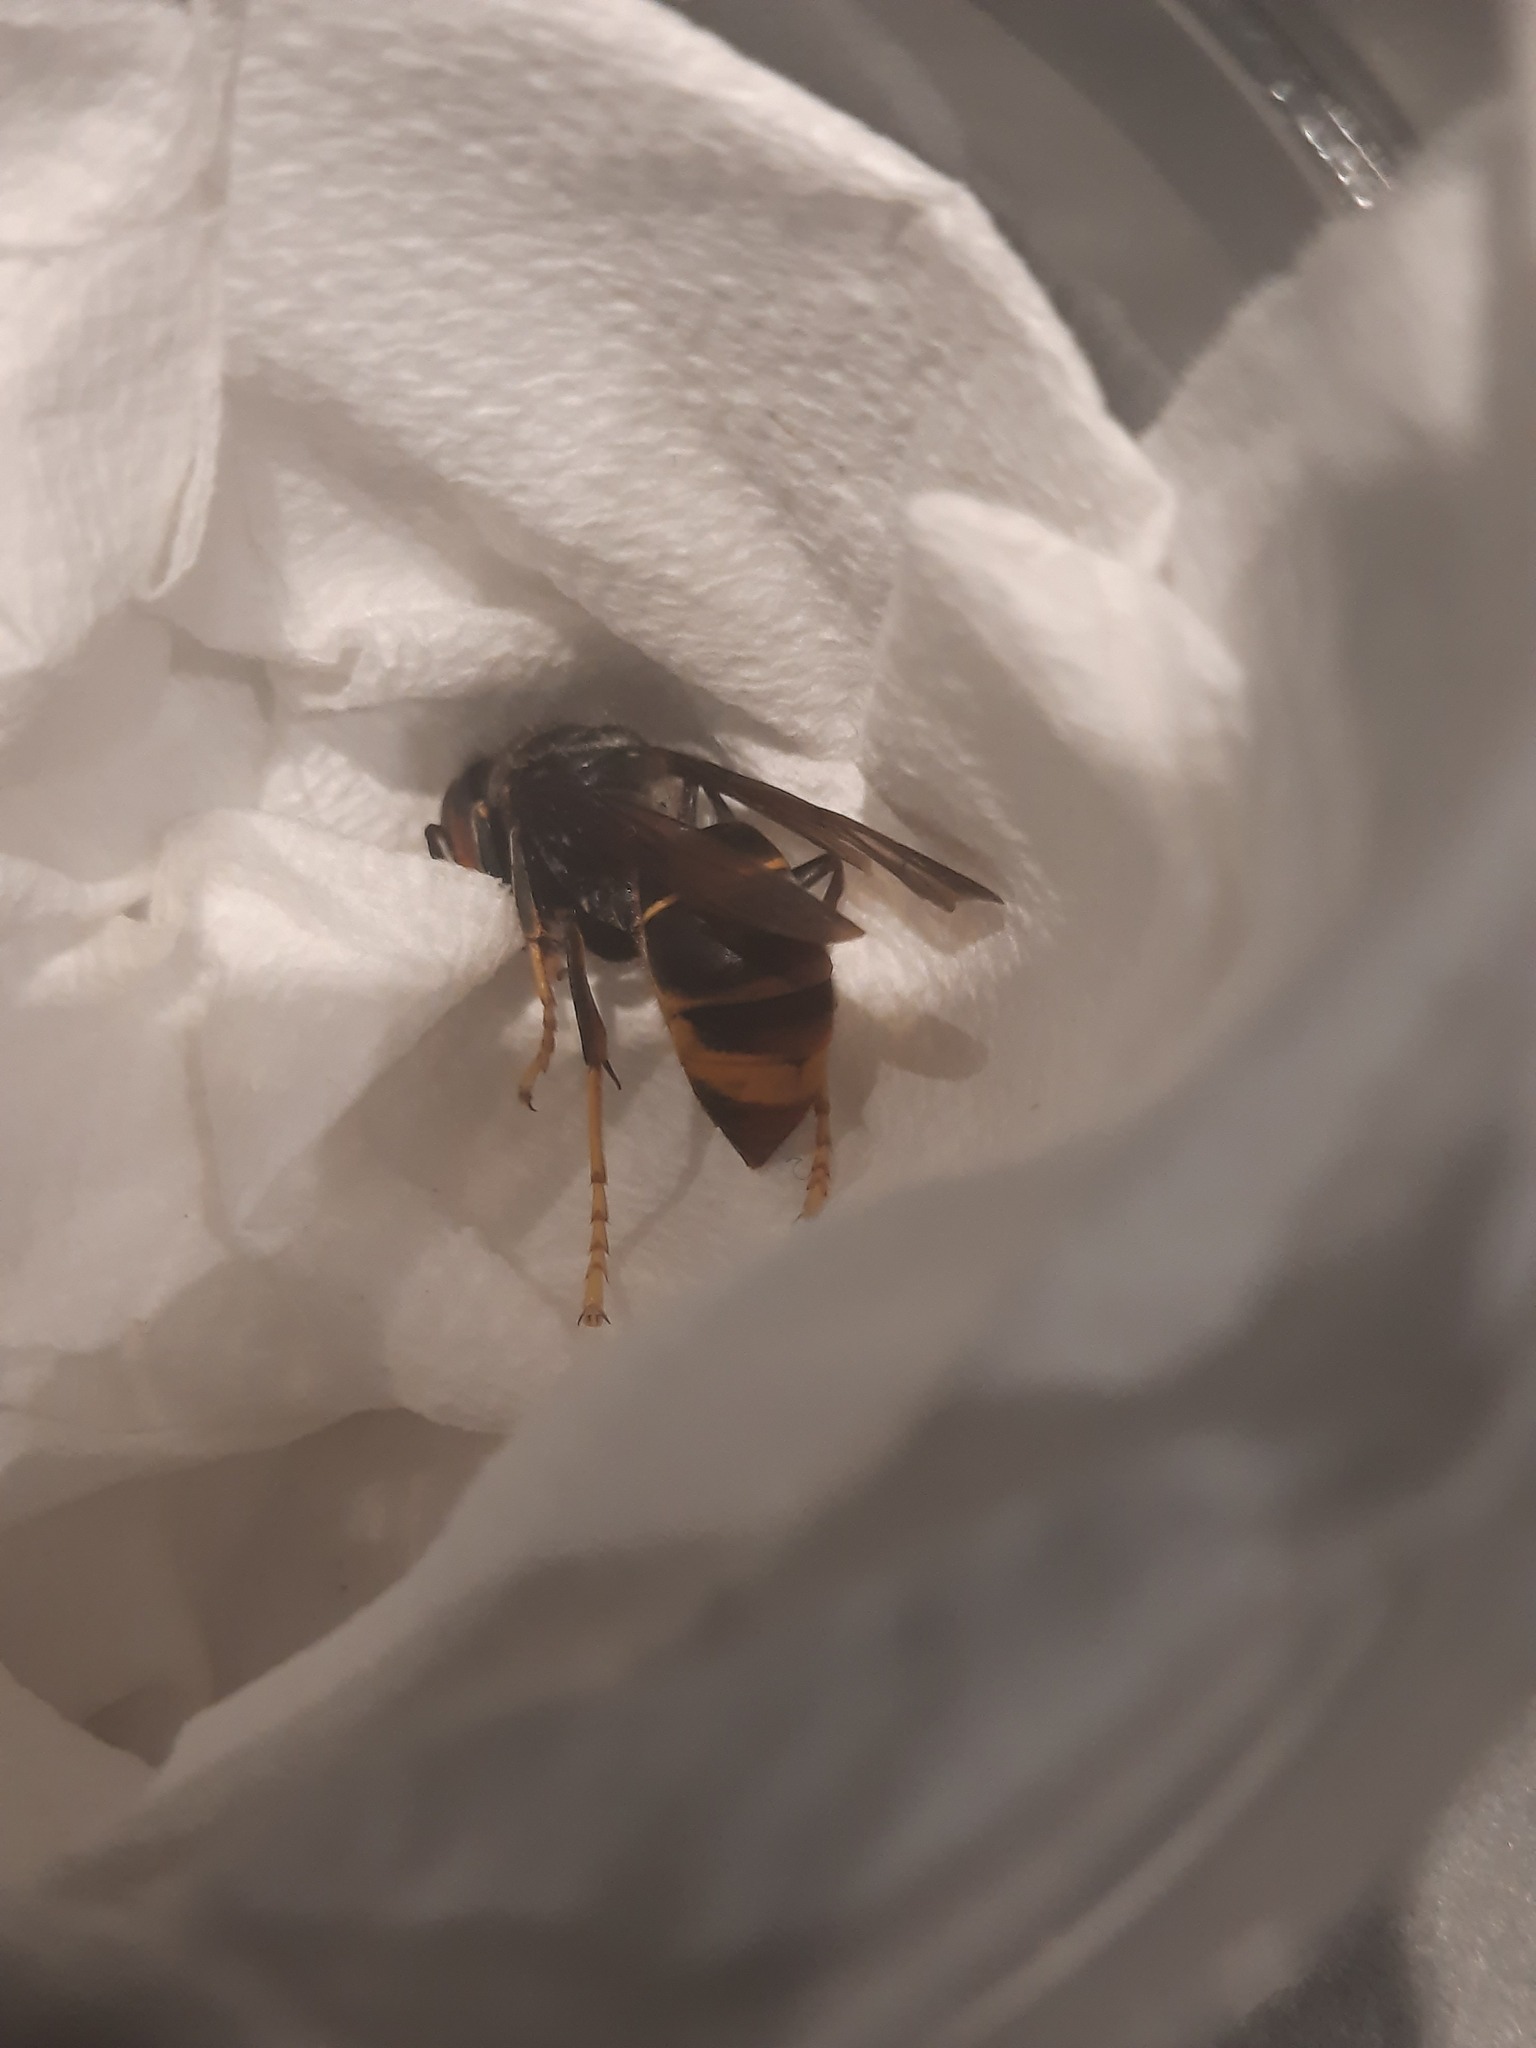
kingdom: Animalia
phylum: Arthropoda
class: Insecta
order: Hymenoptera
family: Vespidae
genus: Vespa
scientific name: Vespa velutina
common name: Asian hornet
